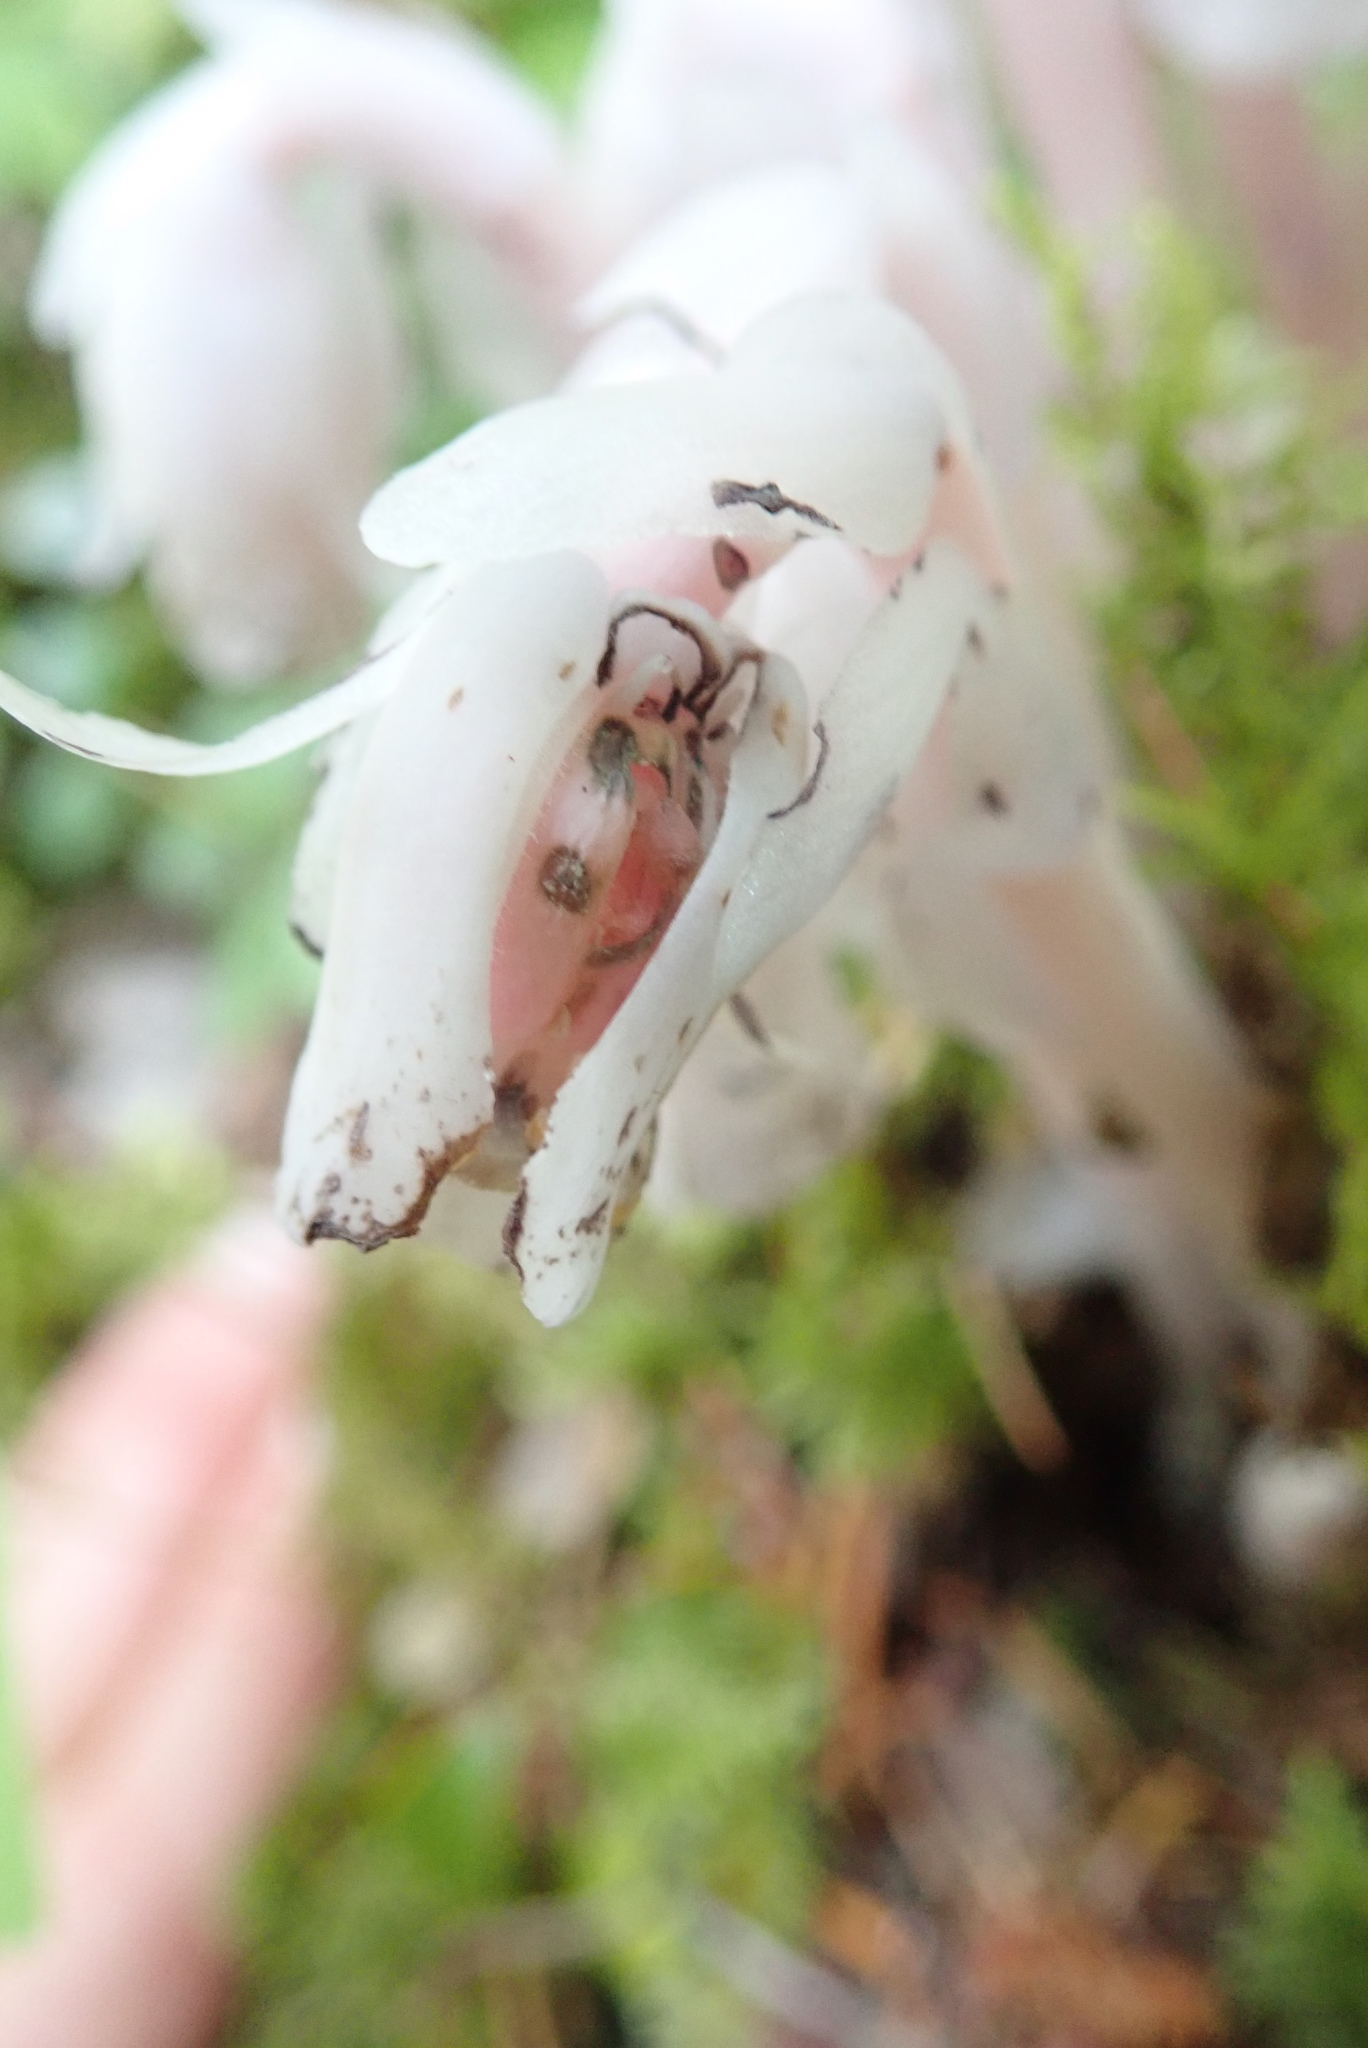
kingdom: Plantae
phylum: Tracheophyta
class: Magnoliopsida
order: Ericales
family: Ericaceae
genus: Monotropa
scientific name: Monotropa uniflora
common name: Convulsion root
